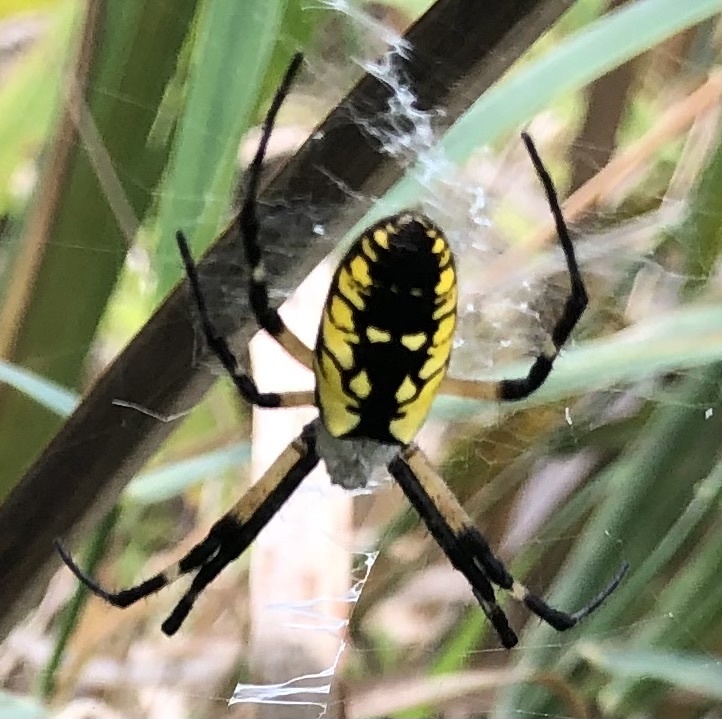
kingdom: Animalia
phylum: Arthropoda
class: Arachnida
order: Araneae
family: Araneidae
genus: Argiope
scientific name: Argiope aurantia
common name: Orb weavers
